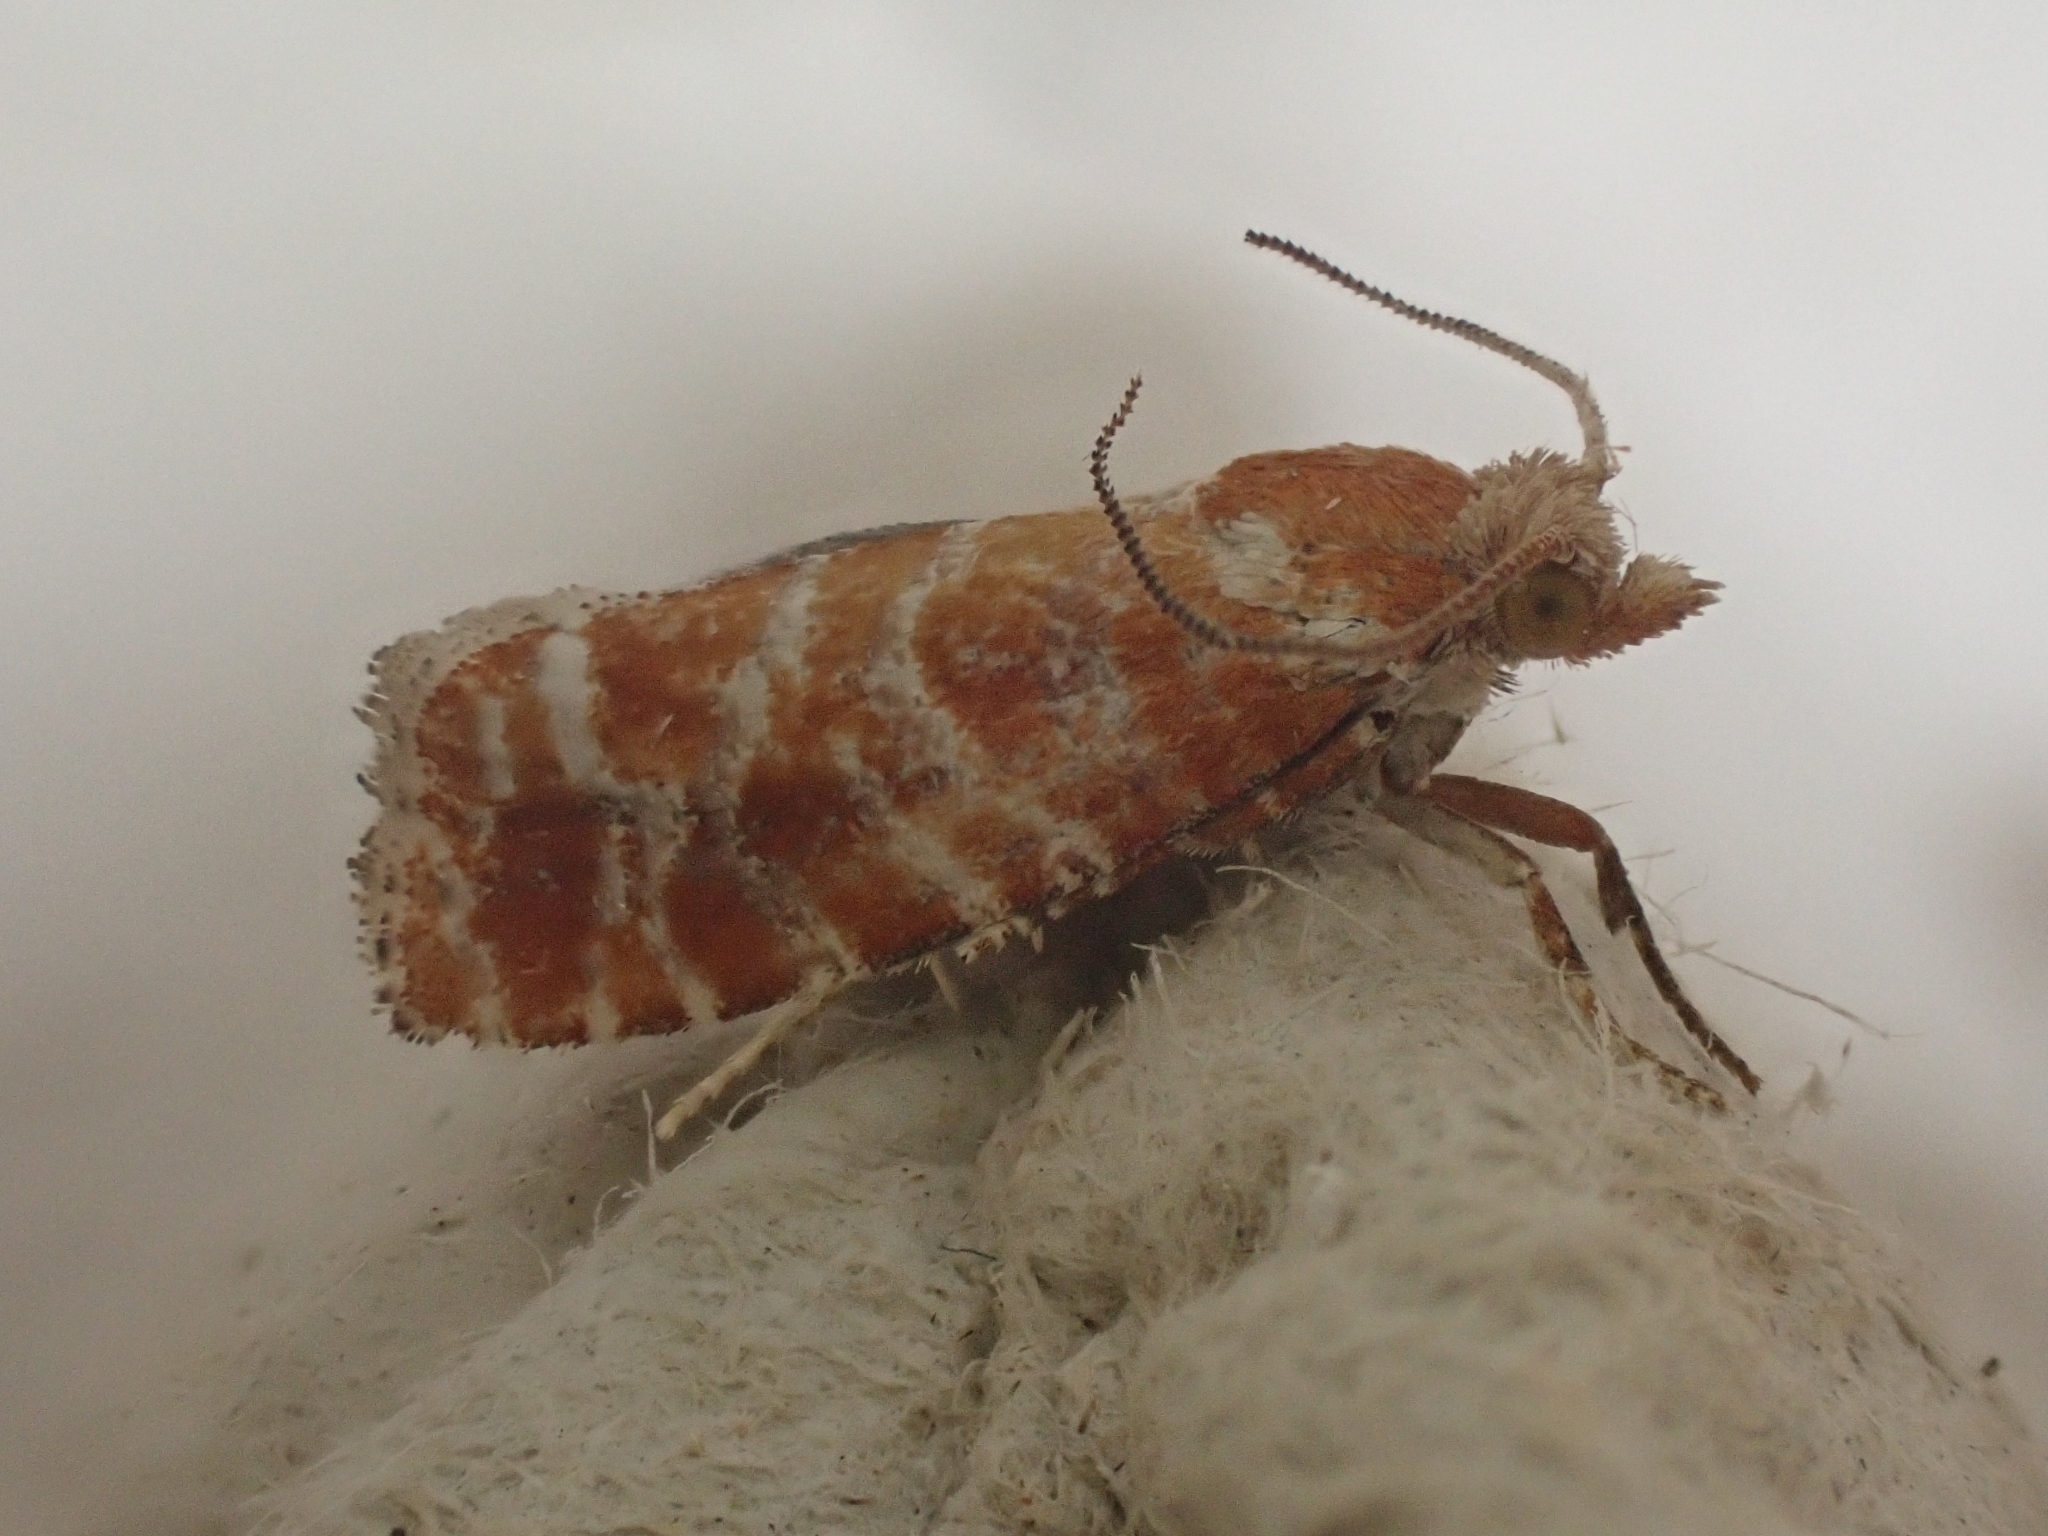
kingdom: Animalia
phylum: Arthropoda
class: Insecta
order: Lepidoptera
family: Tortricidae
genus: Rhyacionia
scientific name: Rhyacionia pinicolana
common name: Orange-spotted shoot
